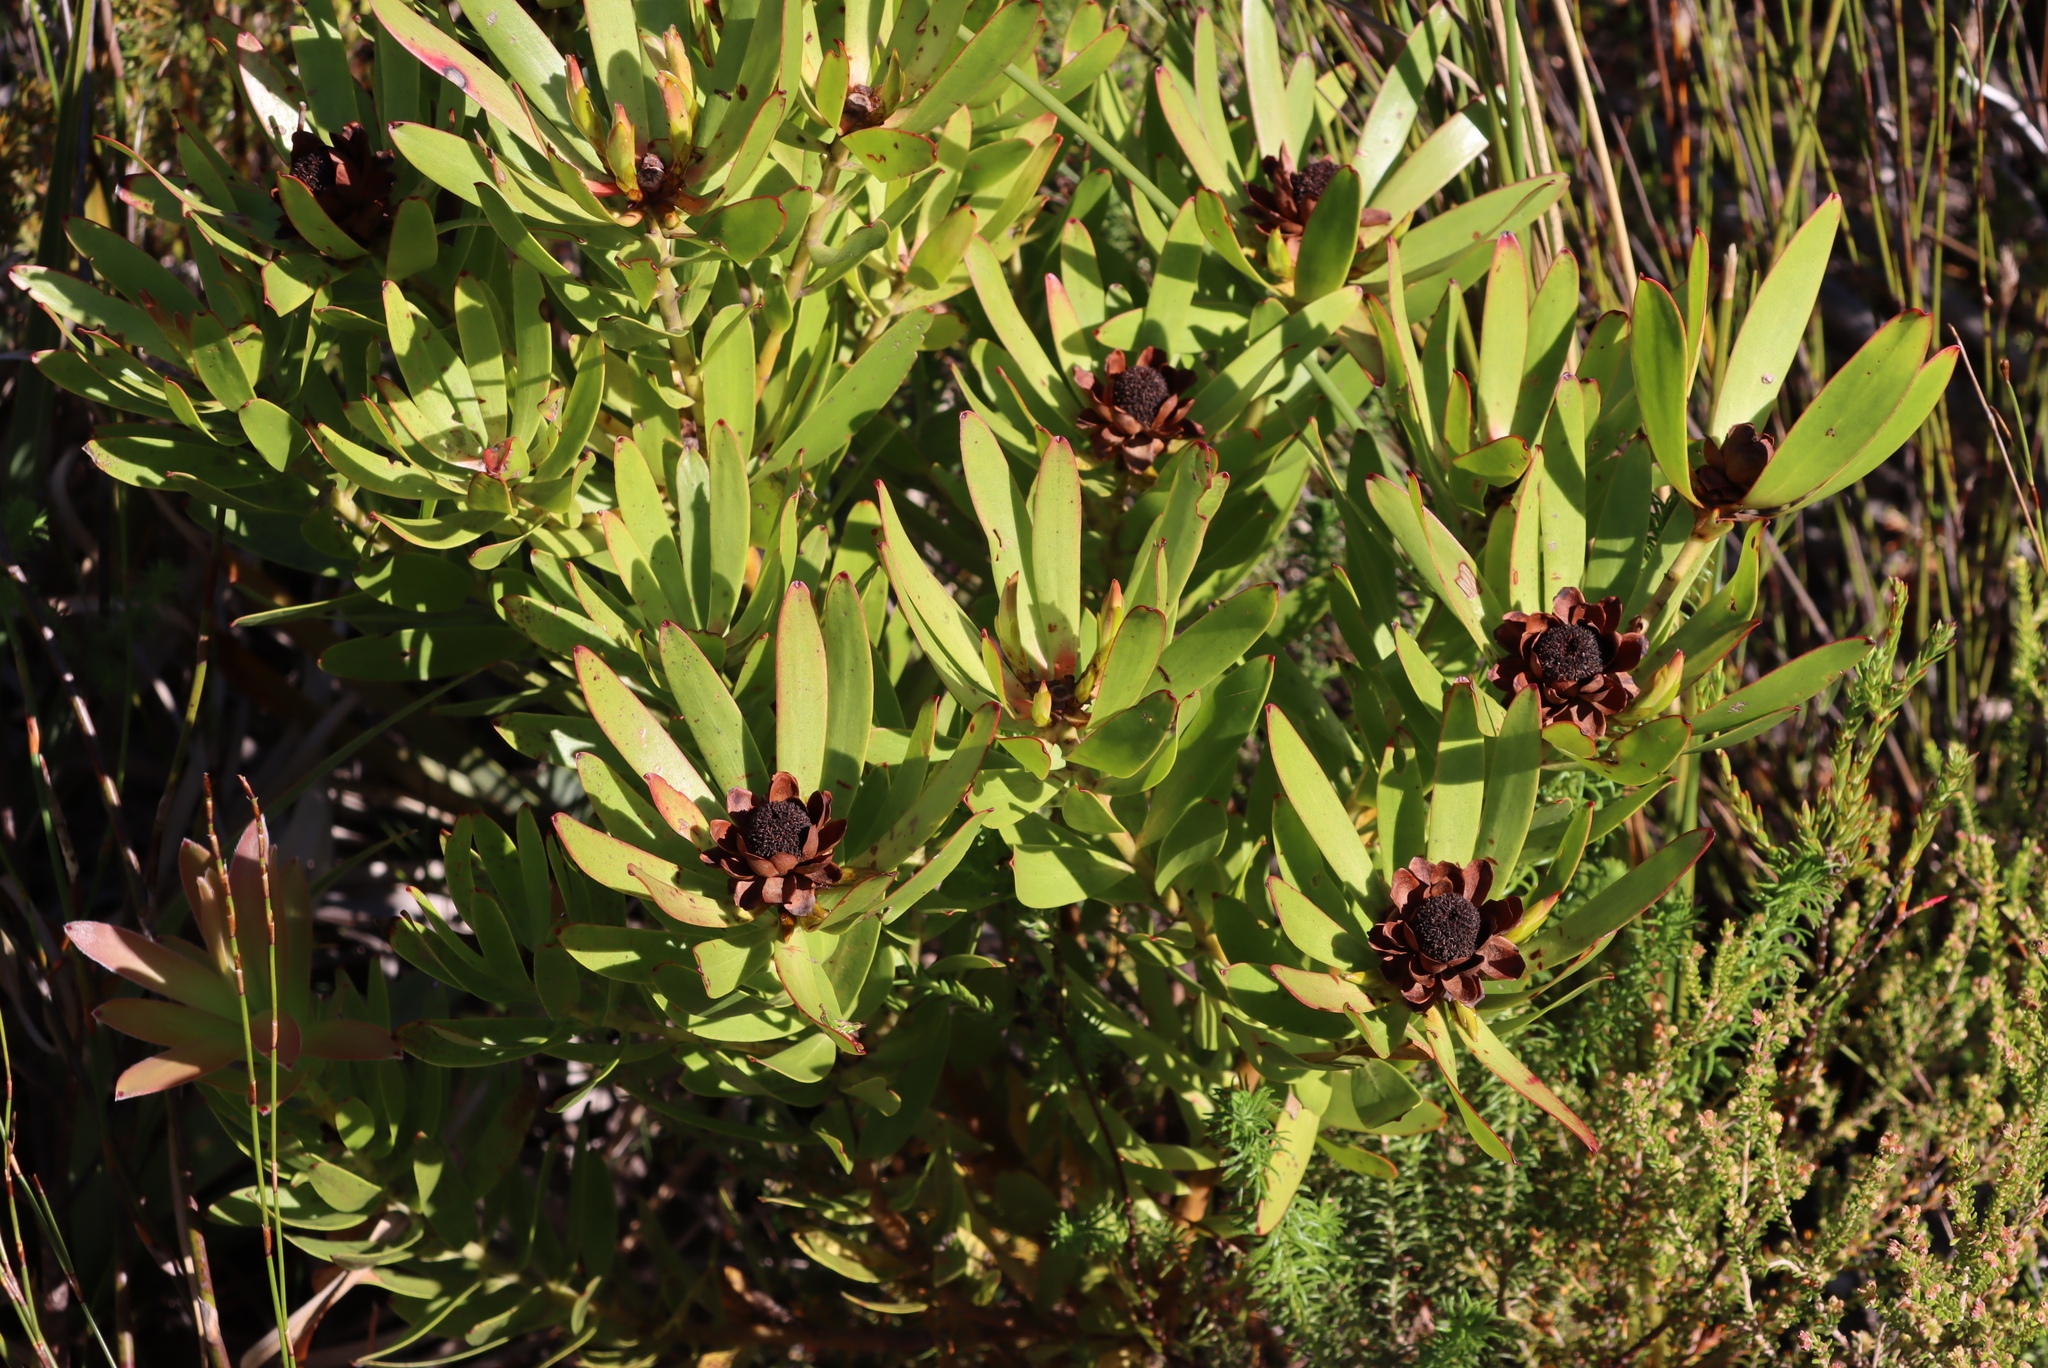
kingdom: Plantae
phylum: Tracheophyta
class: Magnoliopsida
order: Proteales
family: Proteaceae
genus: Leucadendron
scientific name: Leucadendron microcephalum
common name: Oilbract conebush
